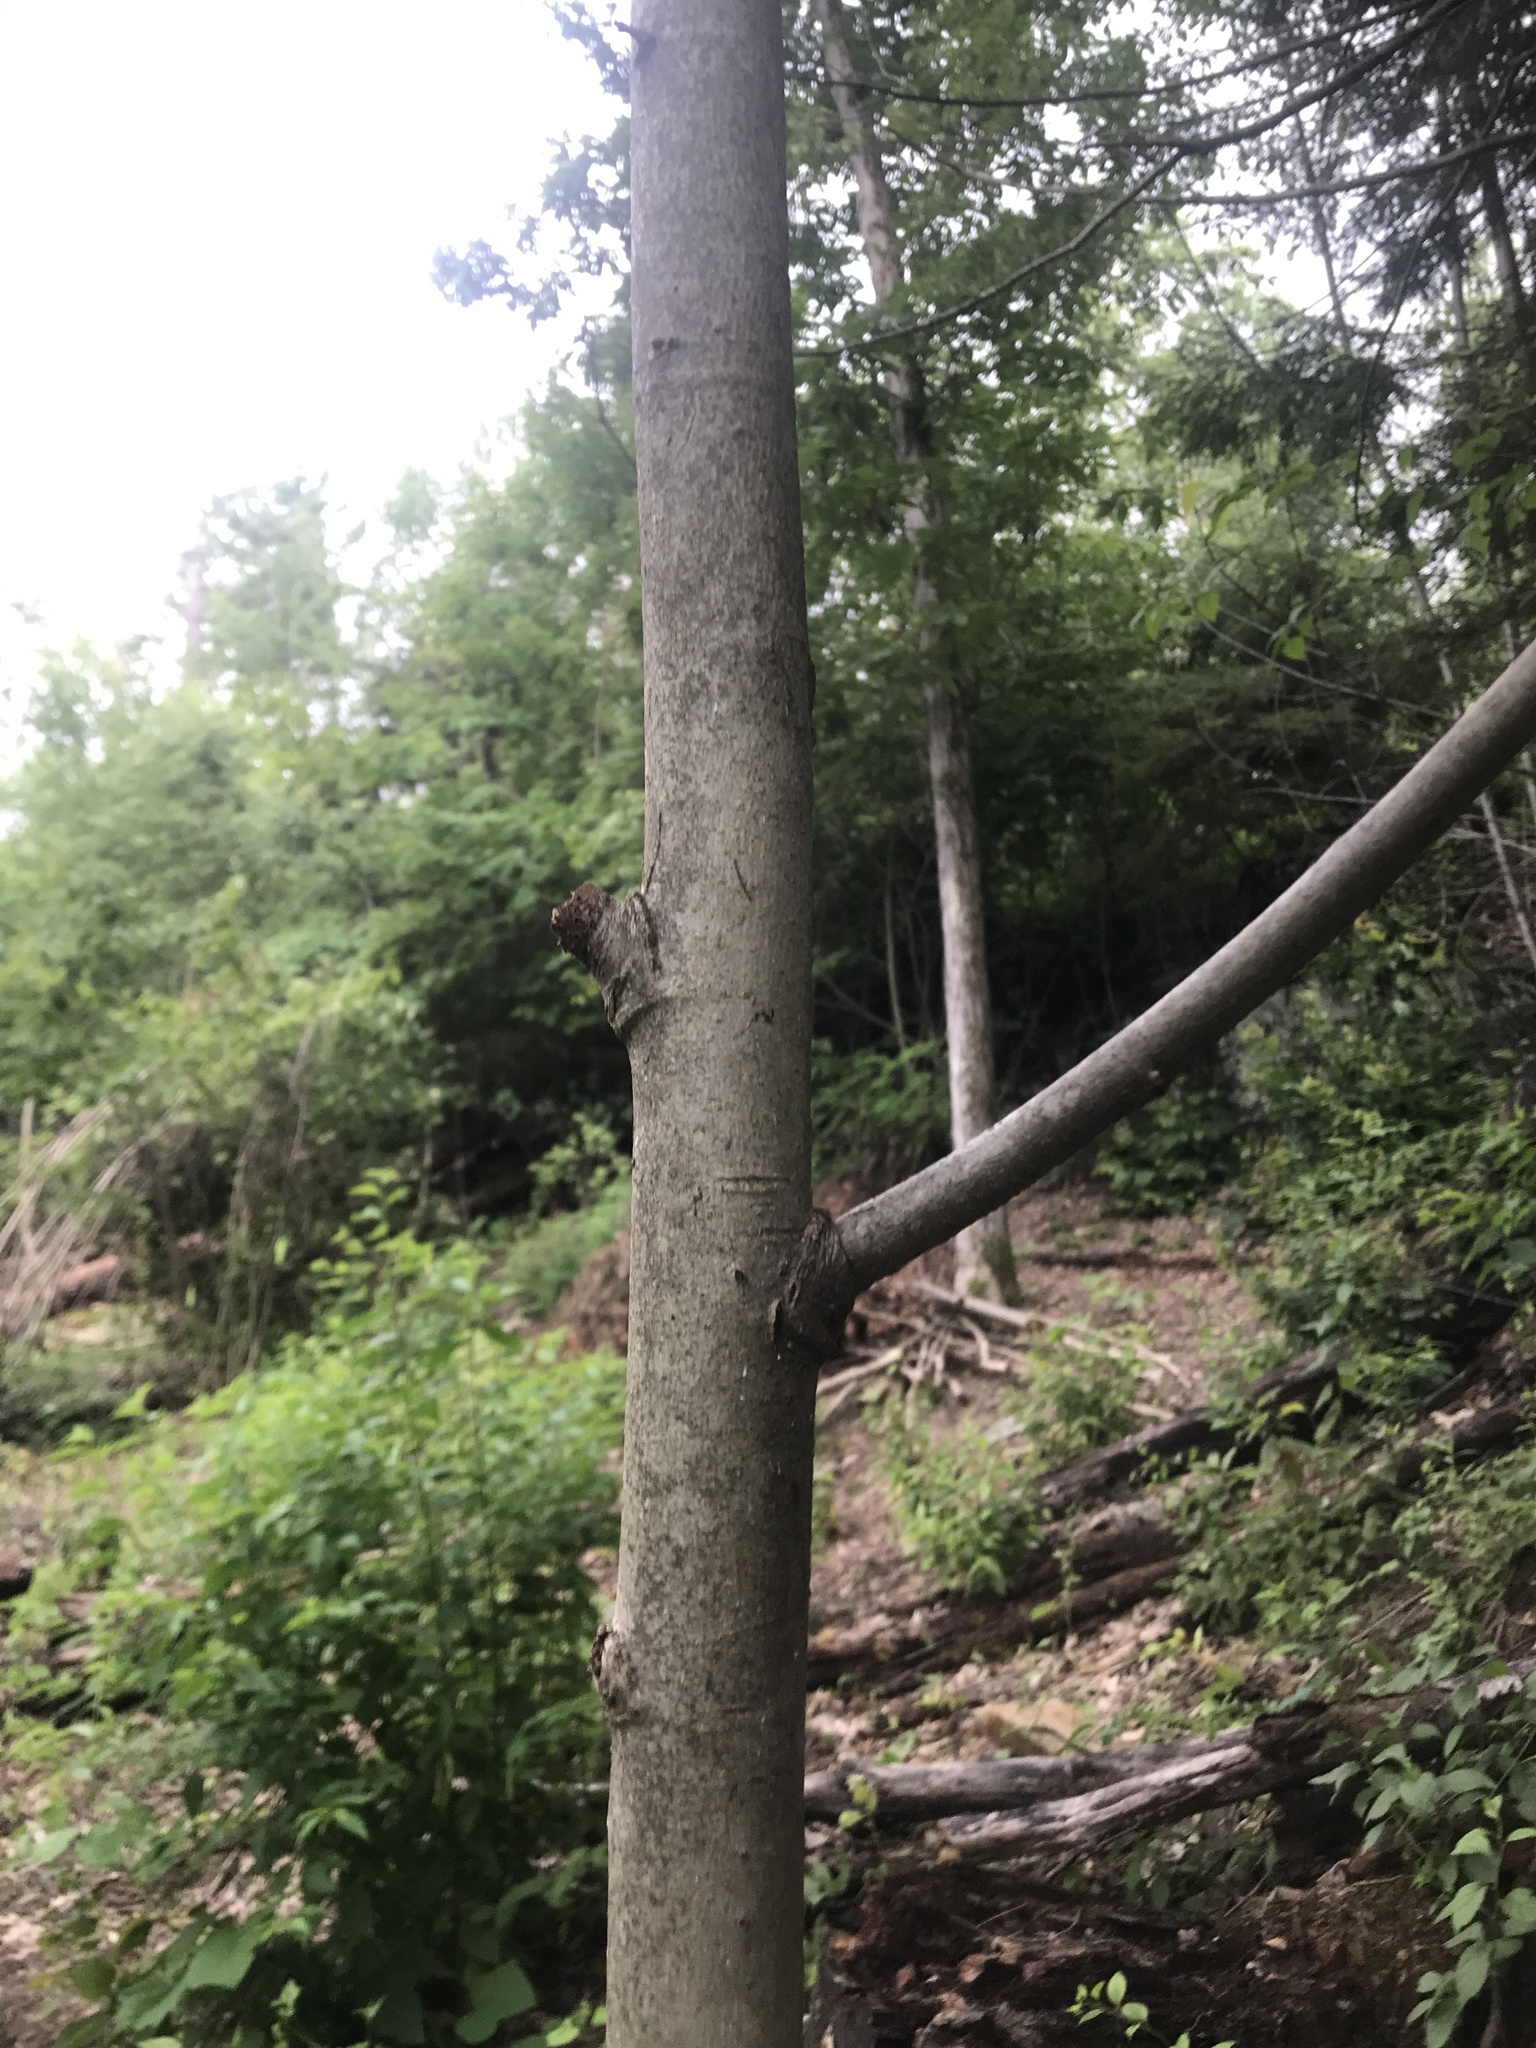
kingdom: Plantae
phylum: Tracheophyta
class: Magnoliopsida
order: Malvales
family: Malvaceae
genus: Tilia
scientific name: Tilia americana
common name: Basswood
